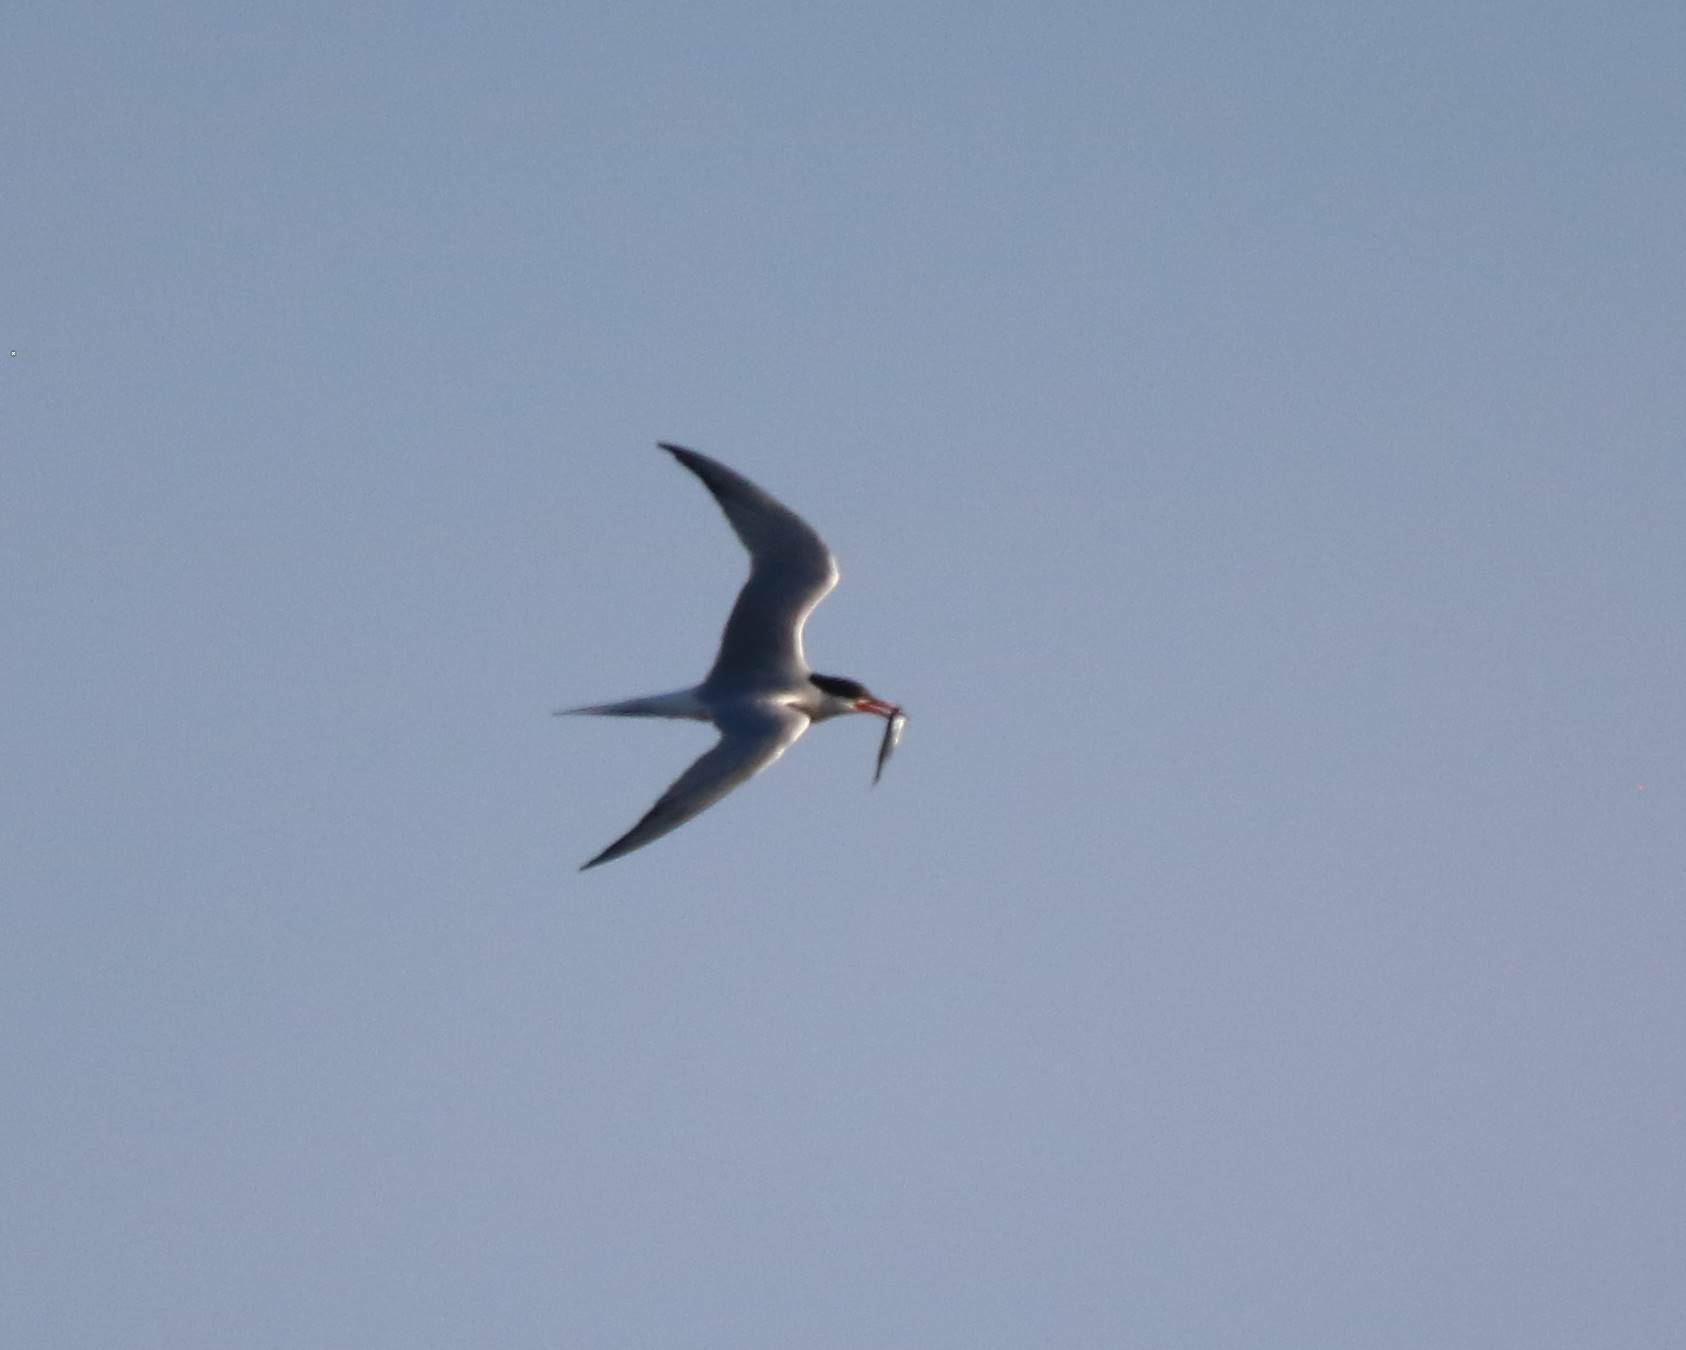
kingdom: Animalia
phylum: Chordata
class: Aves
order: Charadriiformes
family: Laridae
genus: Sterna
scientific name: Sterna hirundo
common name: Common tern
